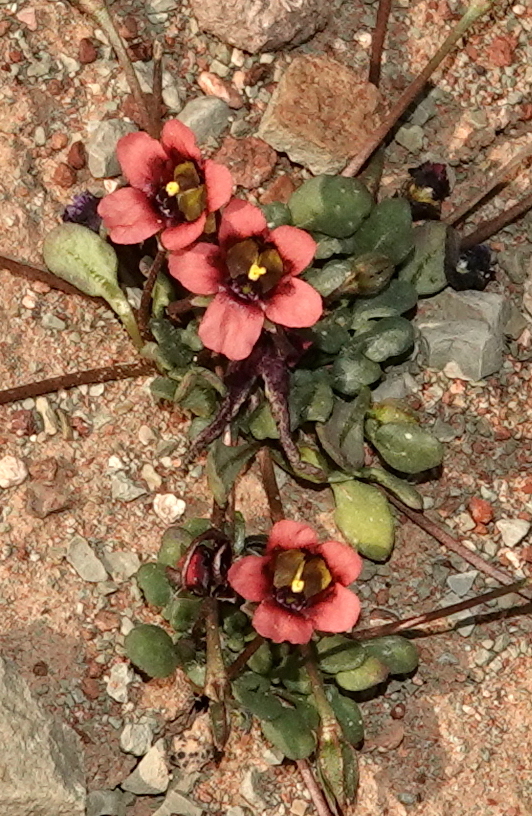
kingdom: Plantae
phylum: Tracheophyta
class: Magnoliopsida
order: Lamiales
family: Scrophulariaceae
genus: Diascia
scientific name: Diascia nana
